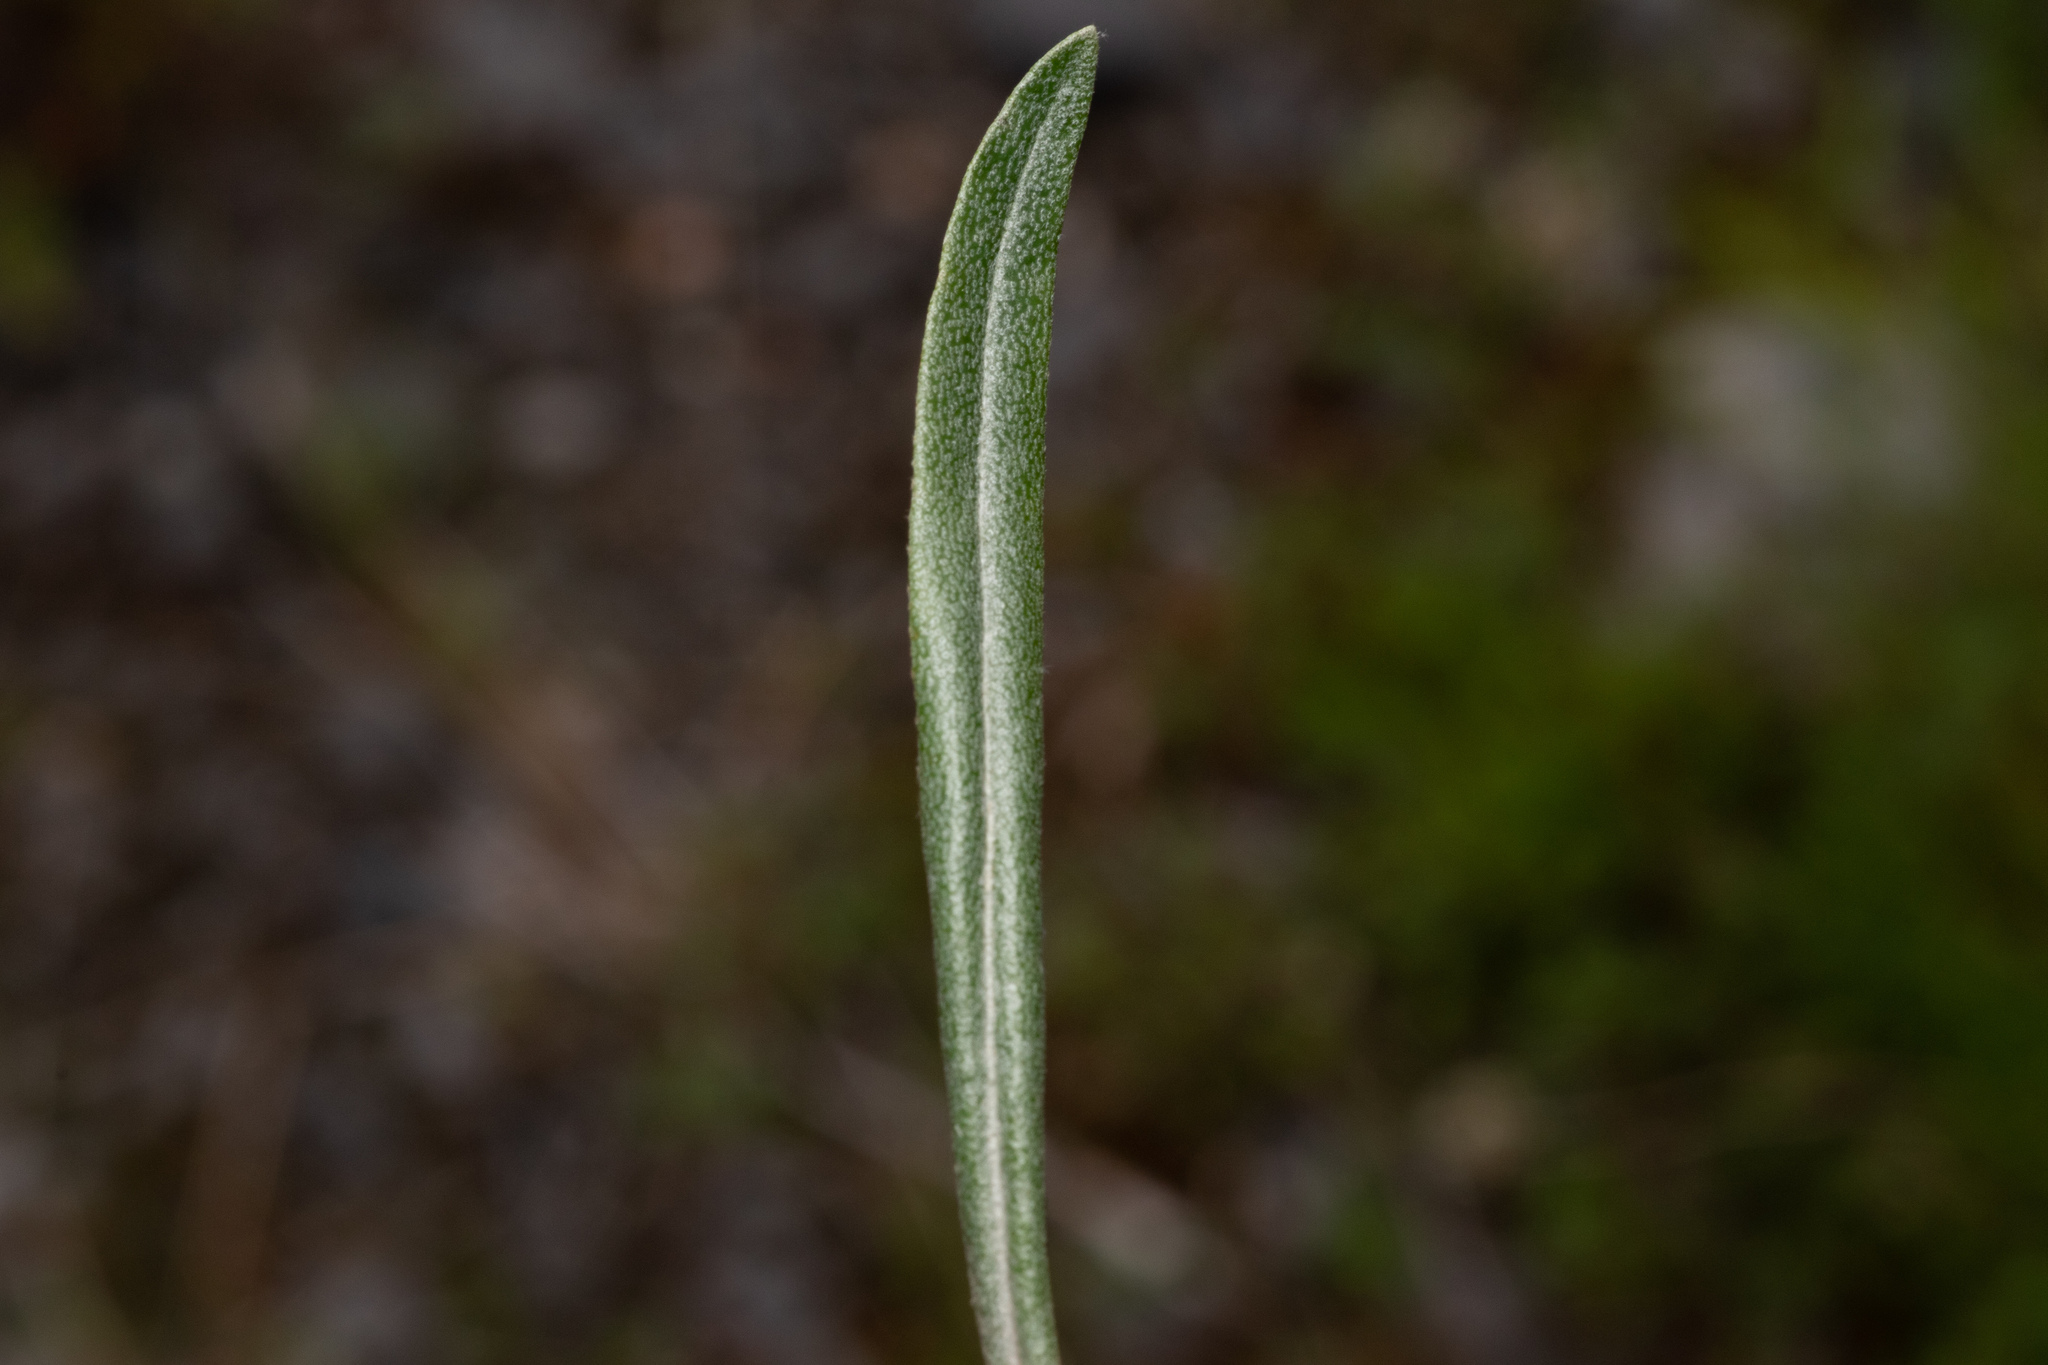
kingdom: Plantae
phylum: Tracheophyta
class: Magnoliopsida
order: Rosales
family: Elaeagnaceae
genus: Hippophae
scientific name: Hippophae rhamnoides
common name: Sea-buckthorn
